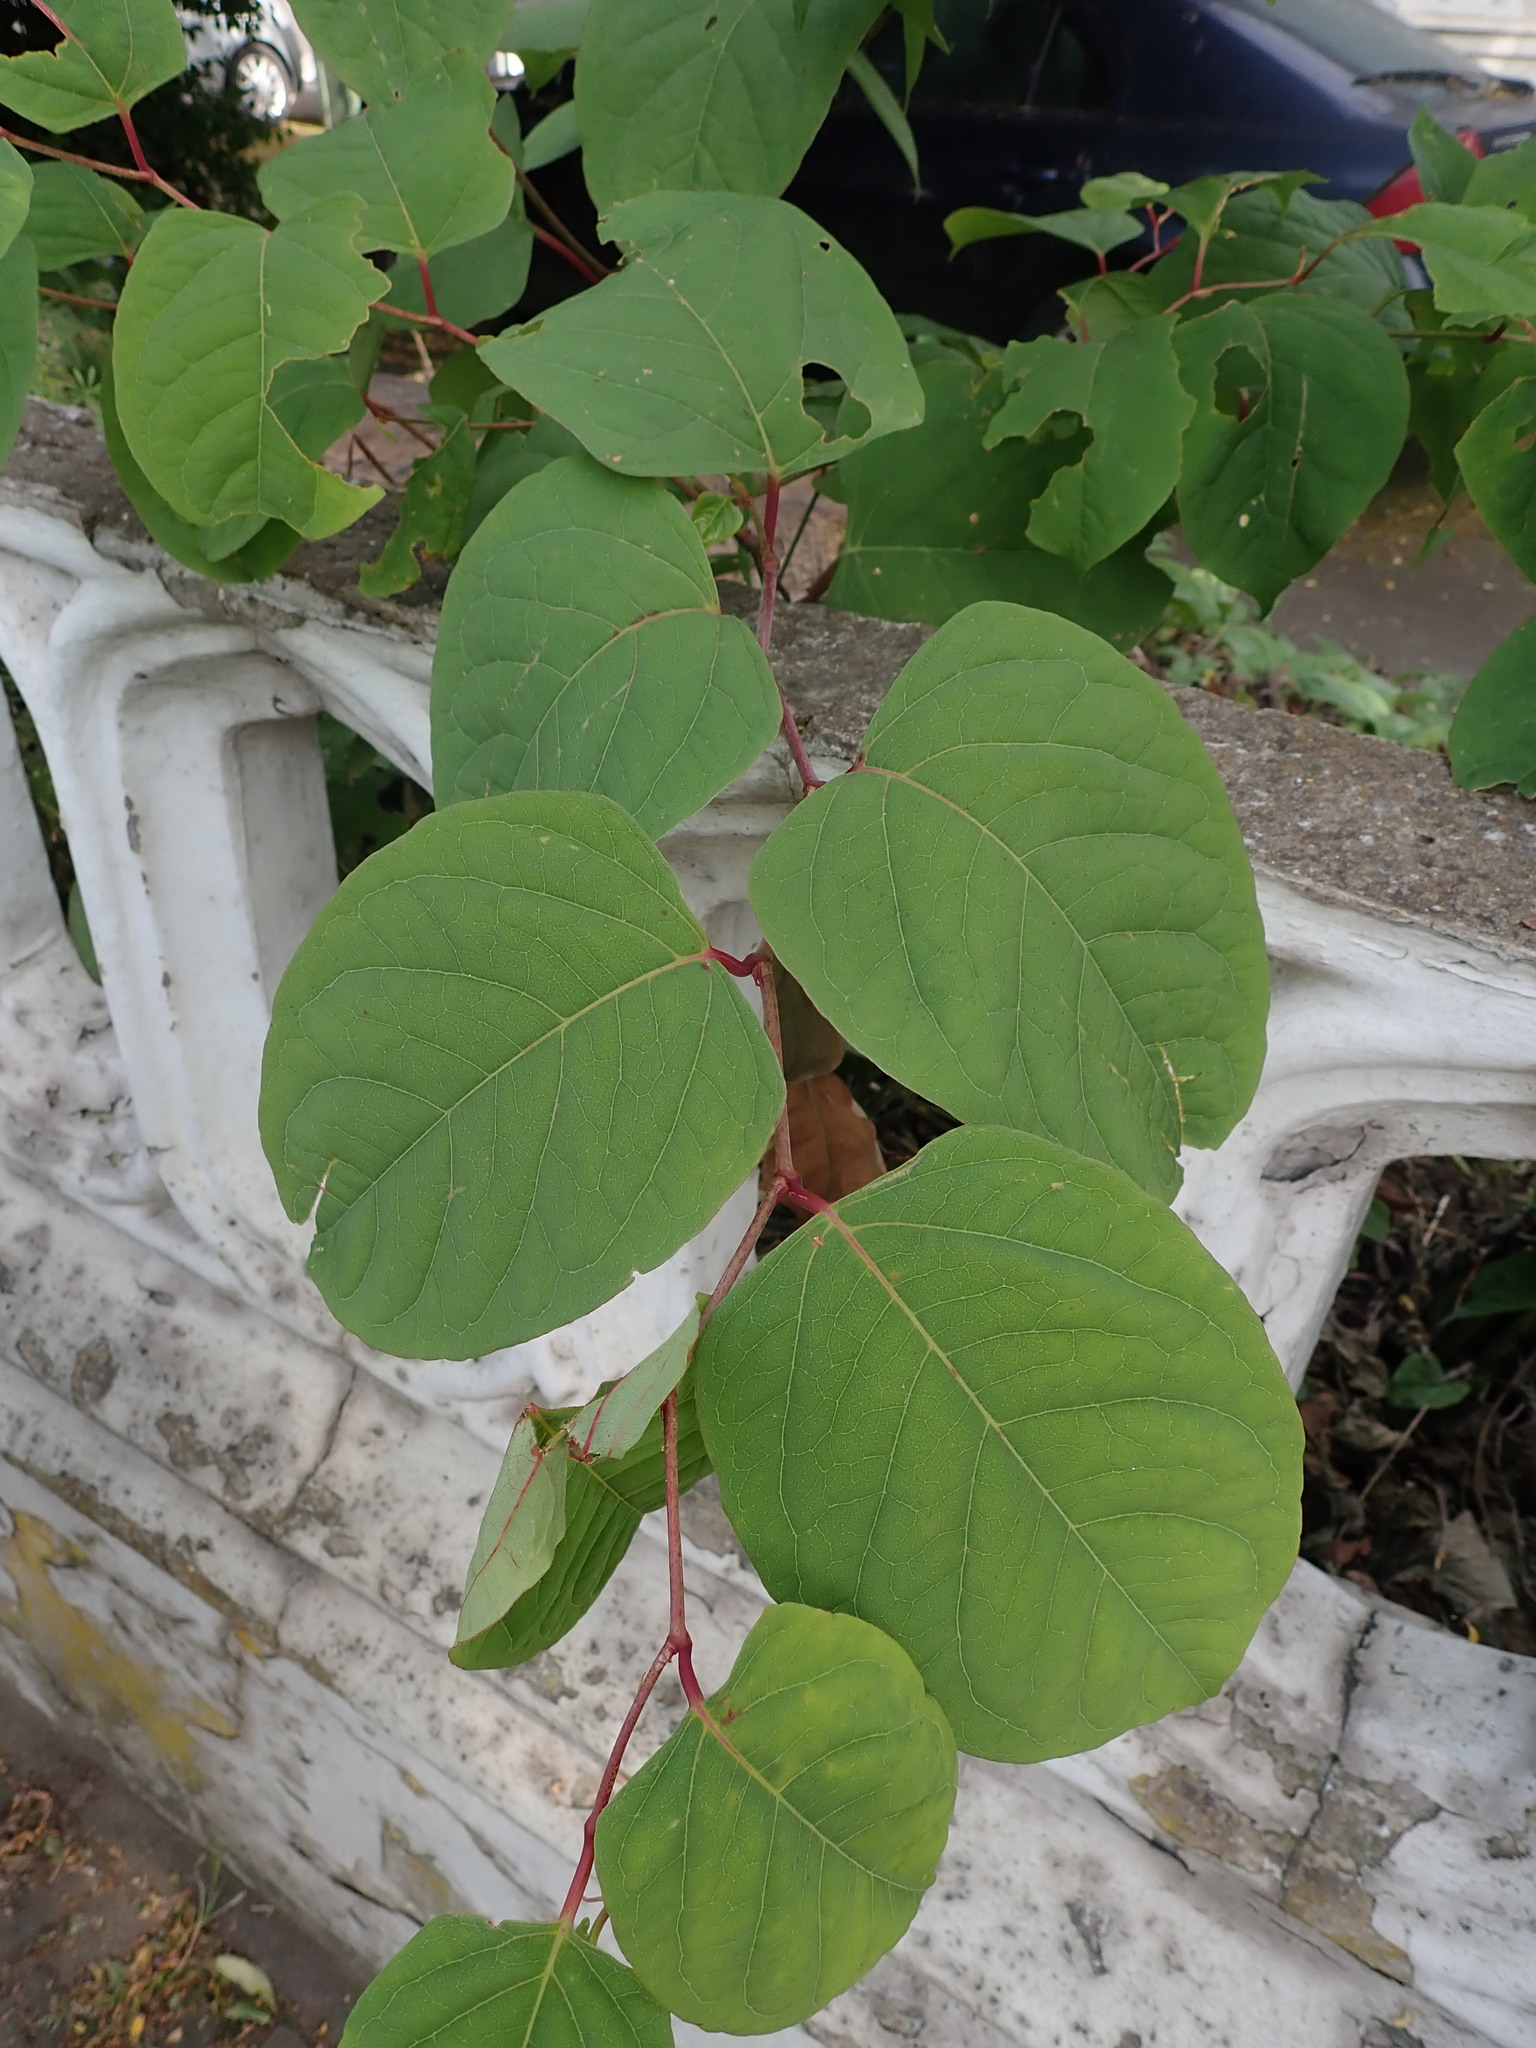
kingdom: Plantae
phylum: Tracheophyta
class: Magnoliopsida
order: Caryophyllales
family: Polygonaceae
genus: Reynoutria
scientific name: Reynoutria japonica
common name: Japanese knotweed
